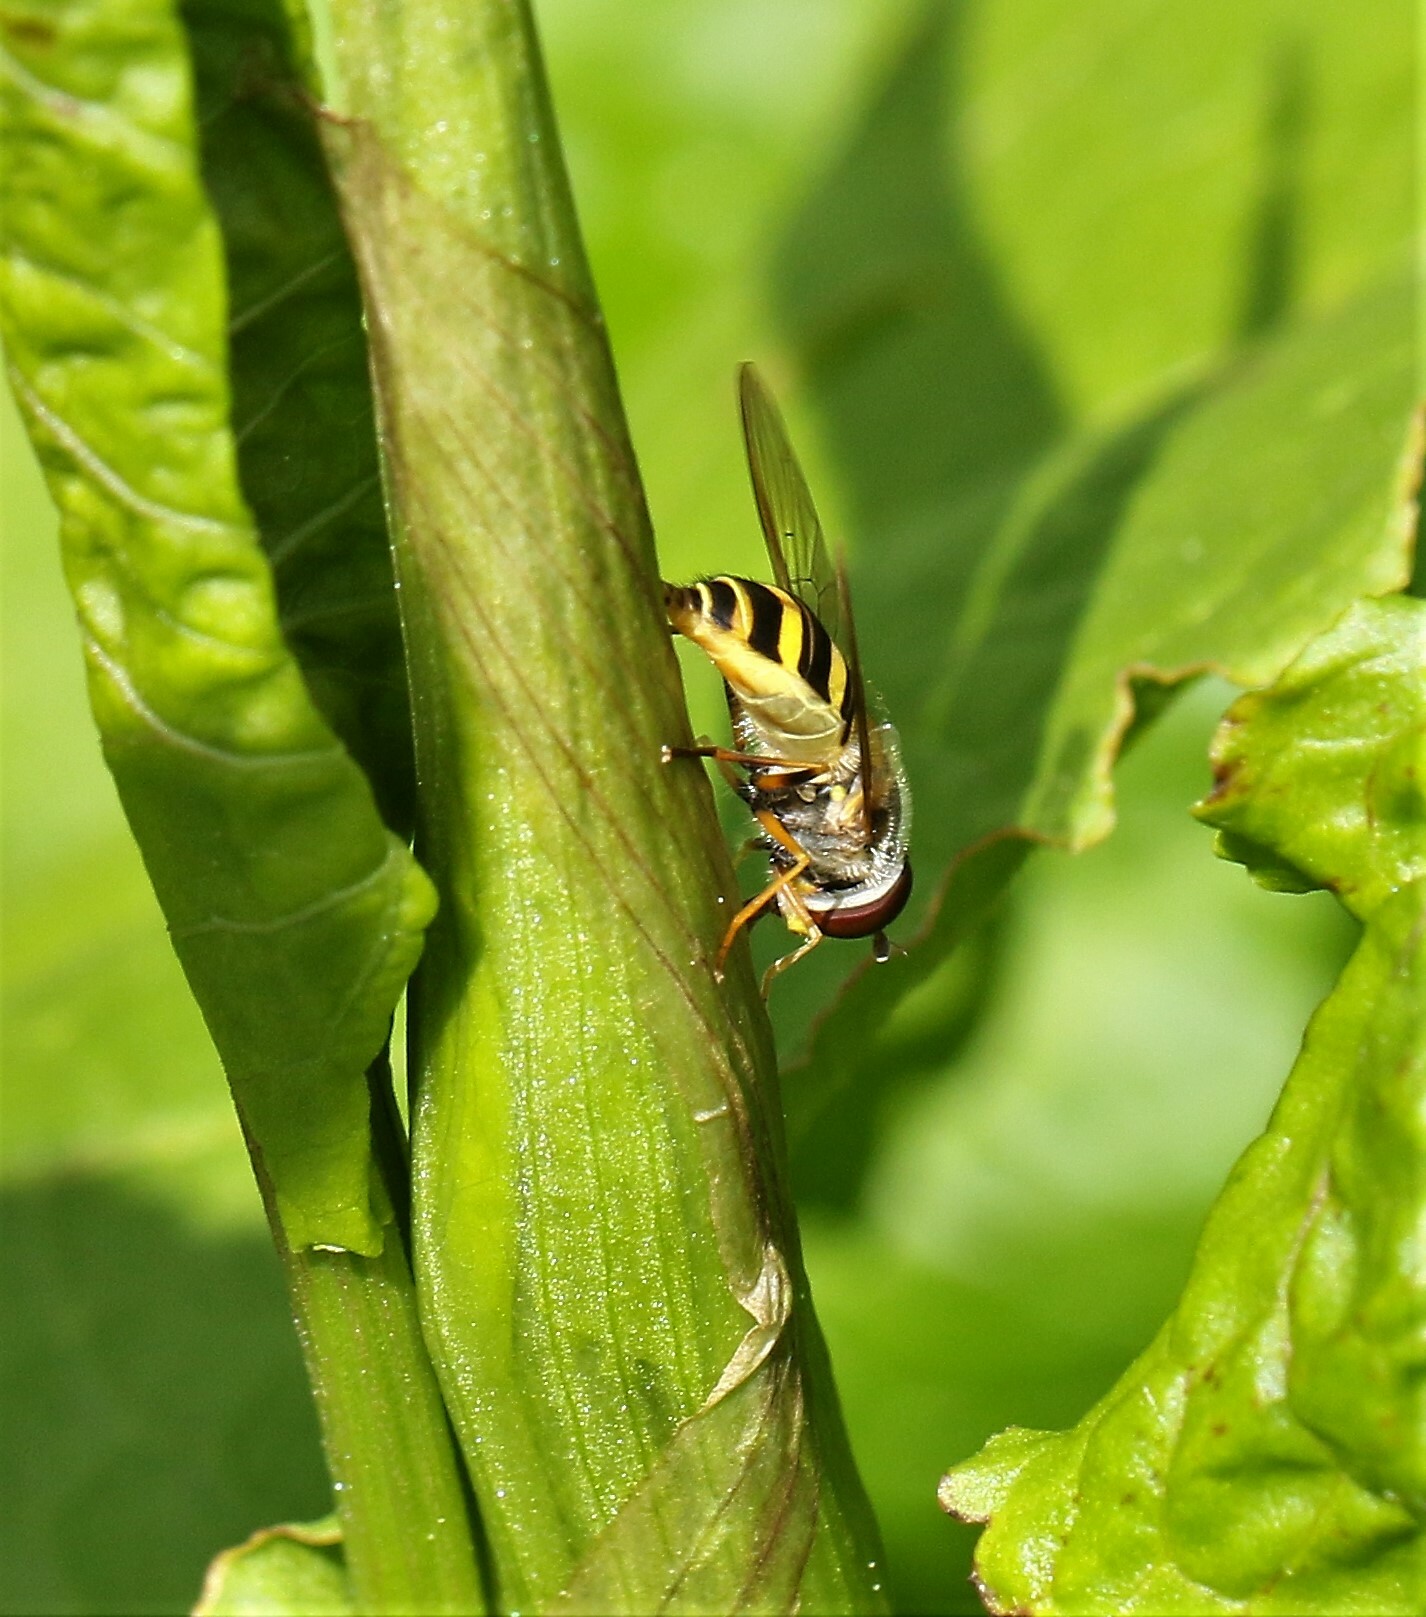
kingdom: Animalia
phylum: Arthropoda
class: Insecta
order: Diptera
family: Syrphidae
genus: Syrphus
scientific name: Syrphus rectus
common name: Yellow-legged flower fly
